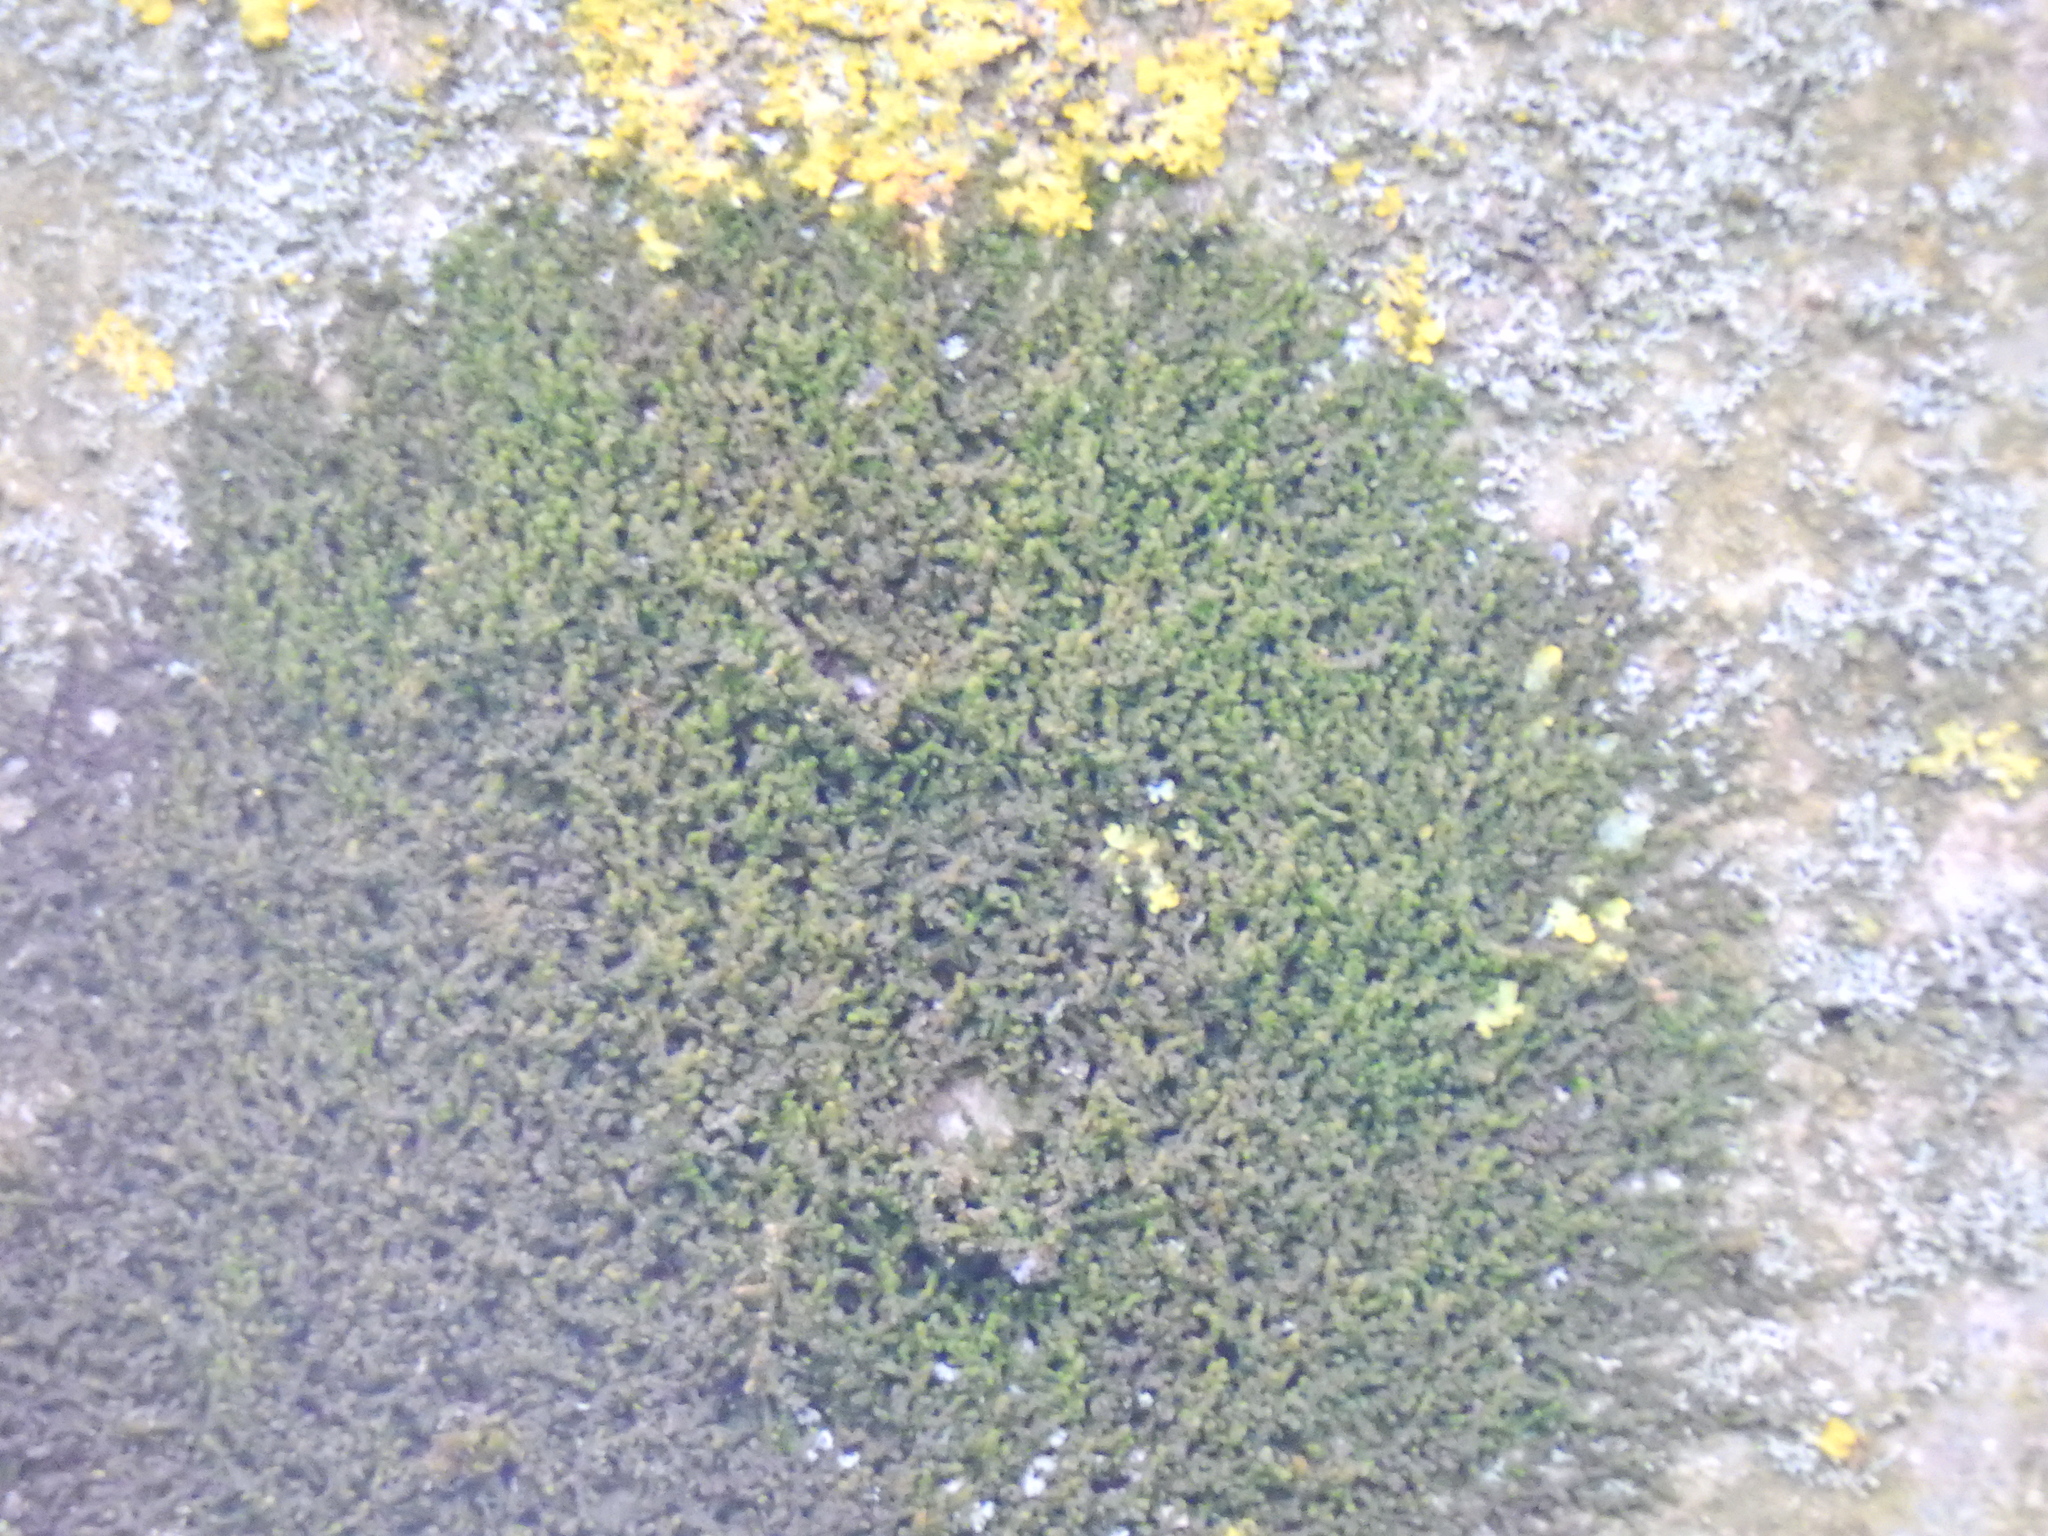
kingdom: Plantae
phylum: Marchantiophyta
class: Jungermanniopsida
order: Porellales
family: Frullaniaceae
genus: Frullania
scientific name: Frullania dilatata
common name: Dilated scalewort
